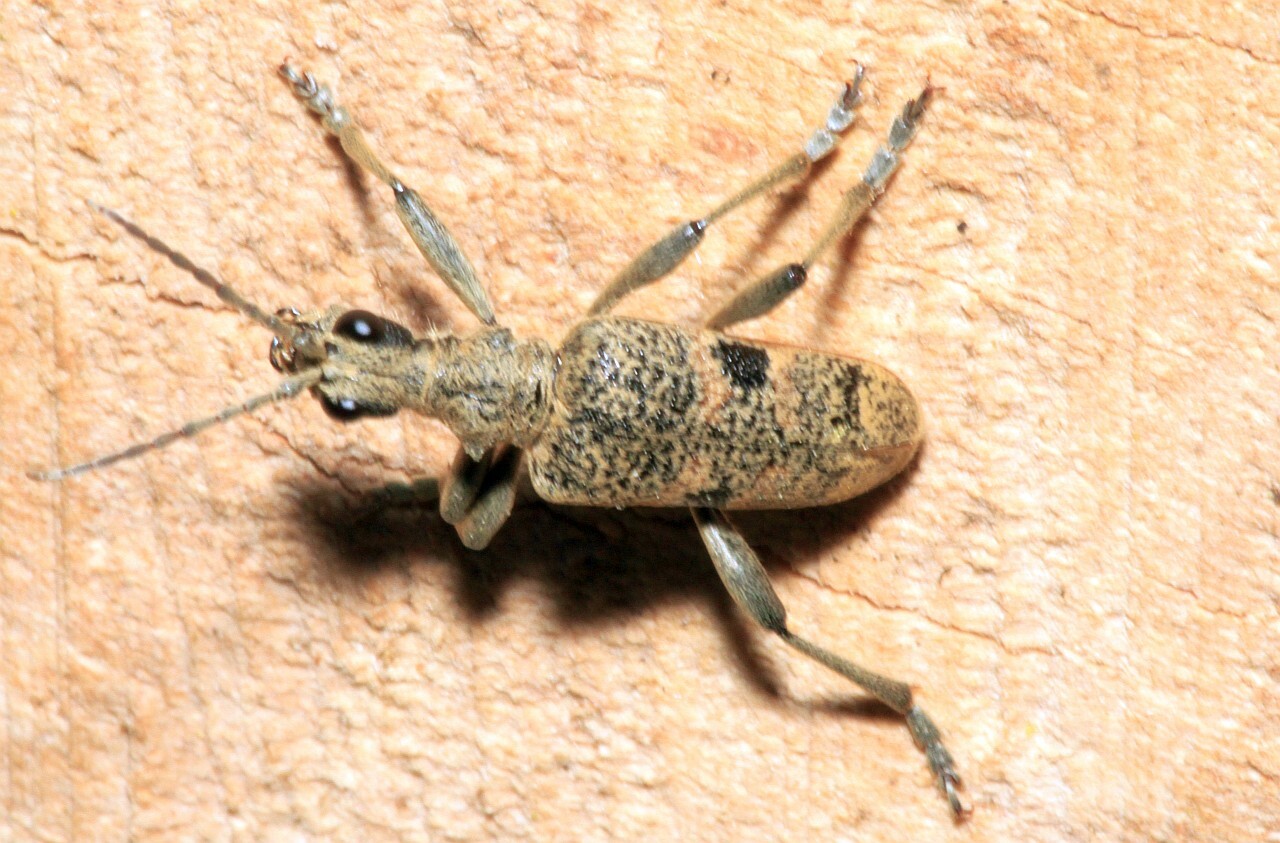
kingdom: Animalia
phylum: Arthropoda
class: Insecta
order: Coleoptera
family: Cerambycidae
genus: Rhagium
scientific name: Rhagium mordax
